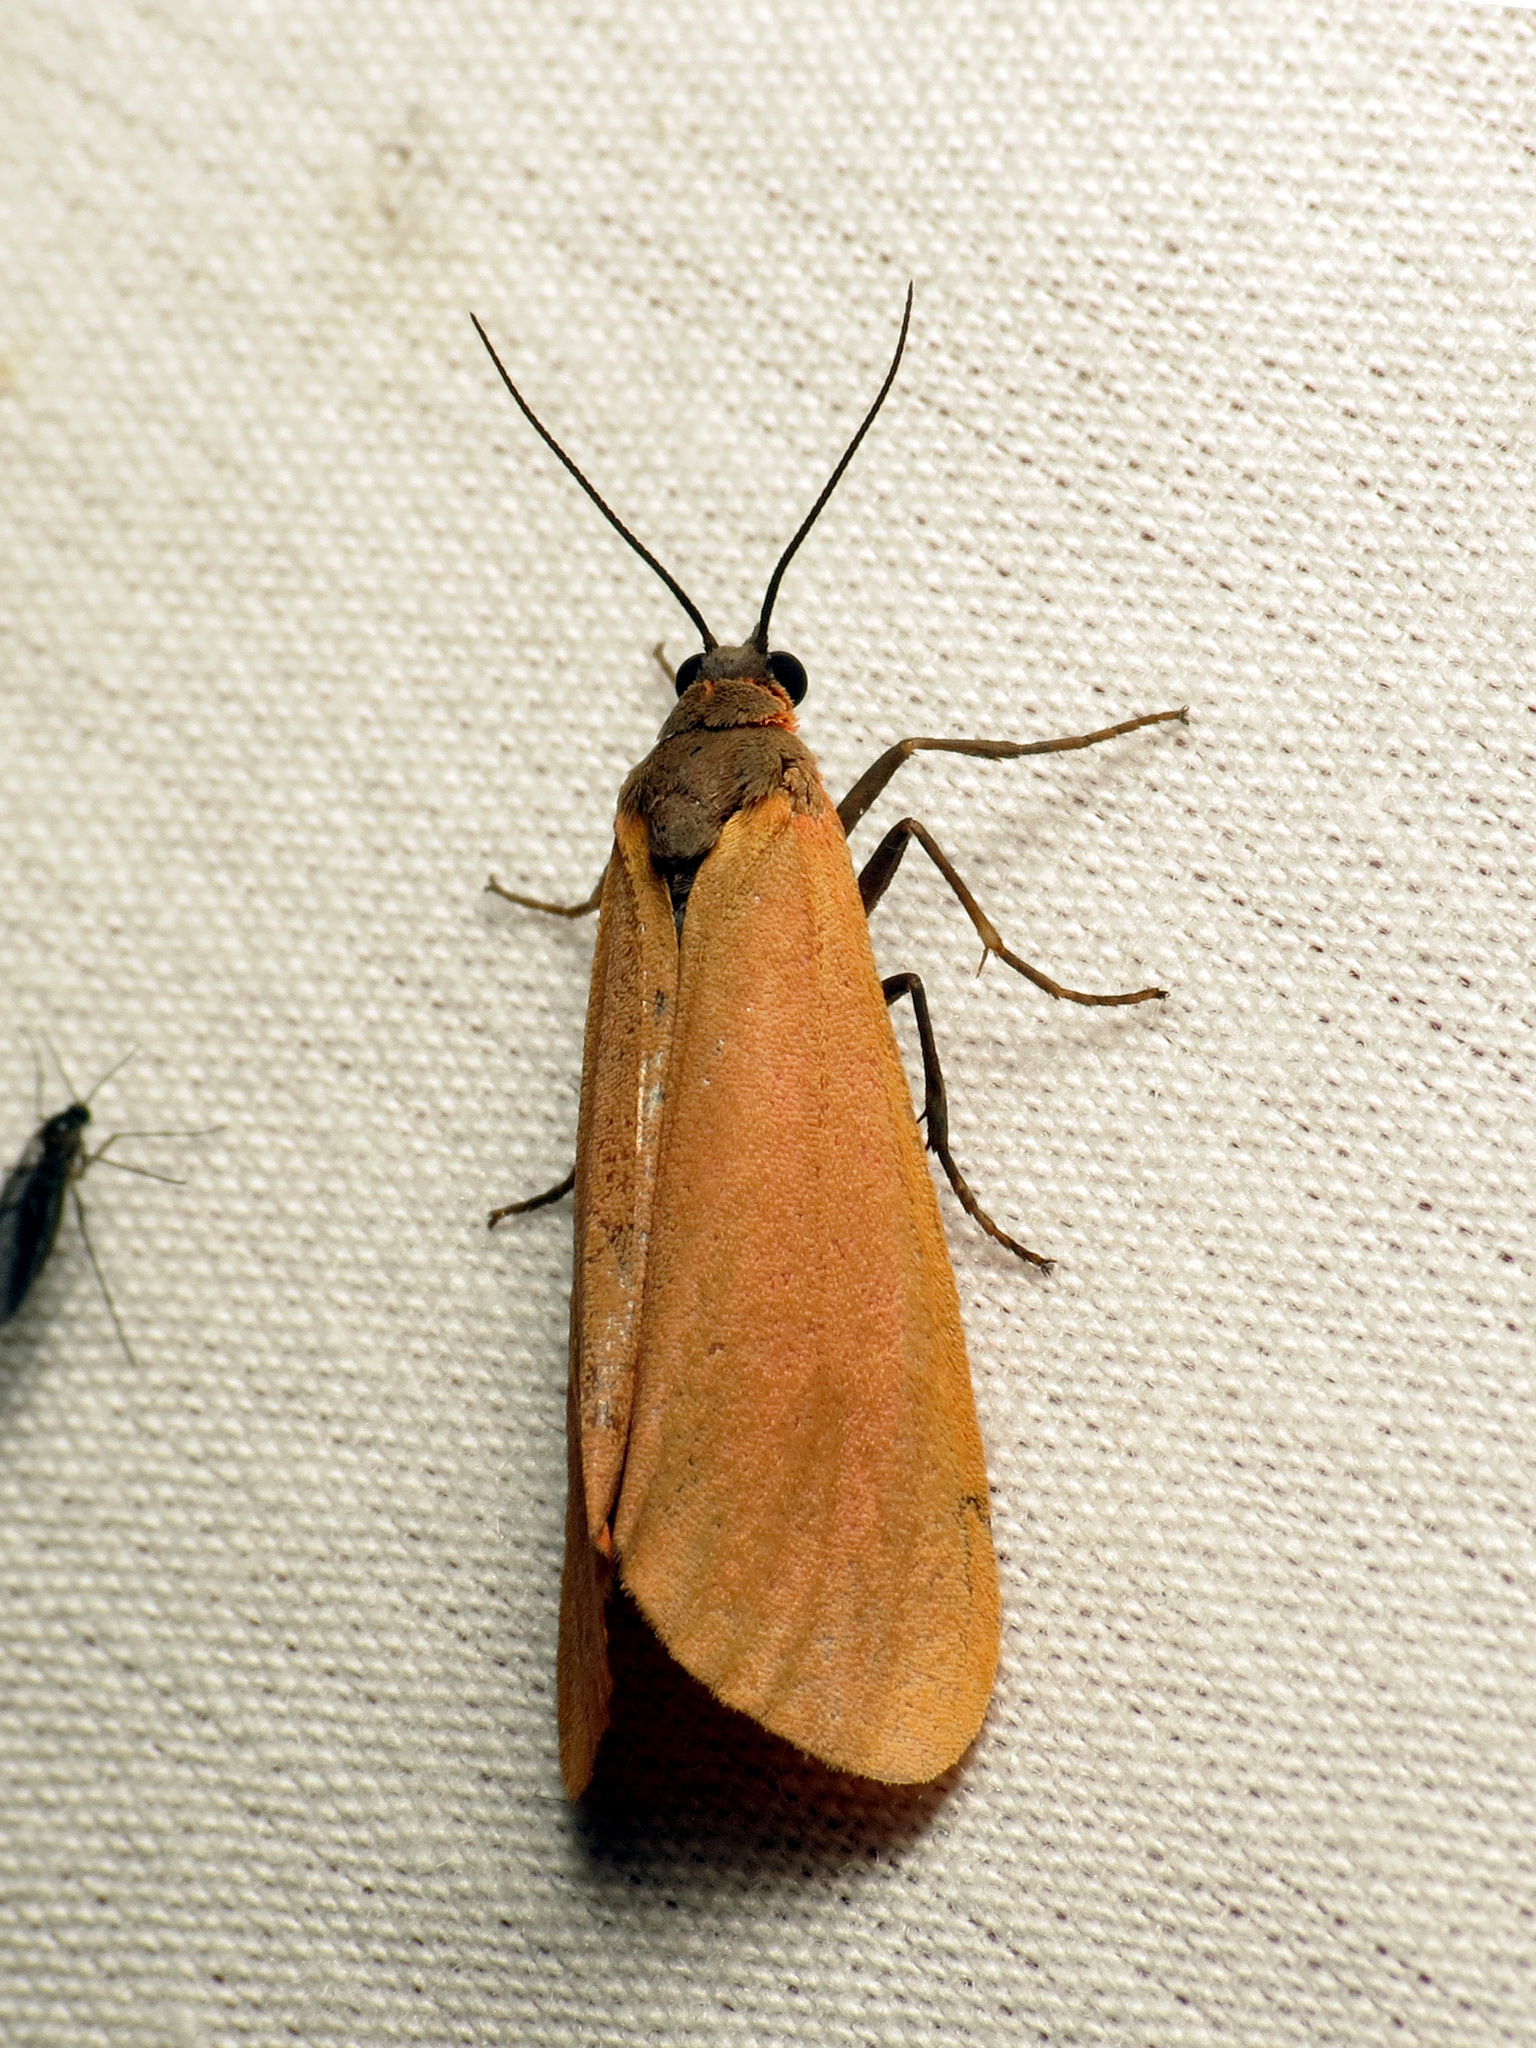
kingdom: Animalia
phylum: Arthropoda
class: Insecta
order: Lepidoptera
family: Erebidae
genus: Virbia
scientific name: Virbia ostenta
